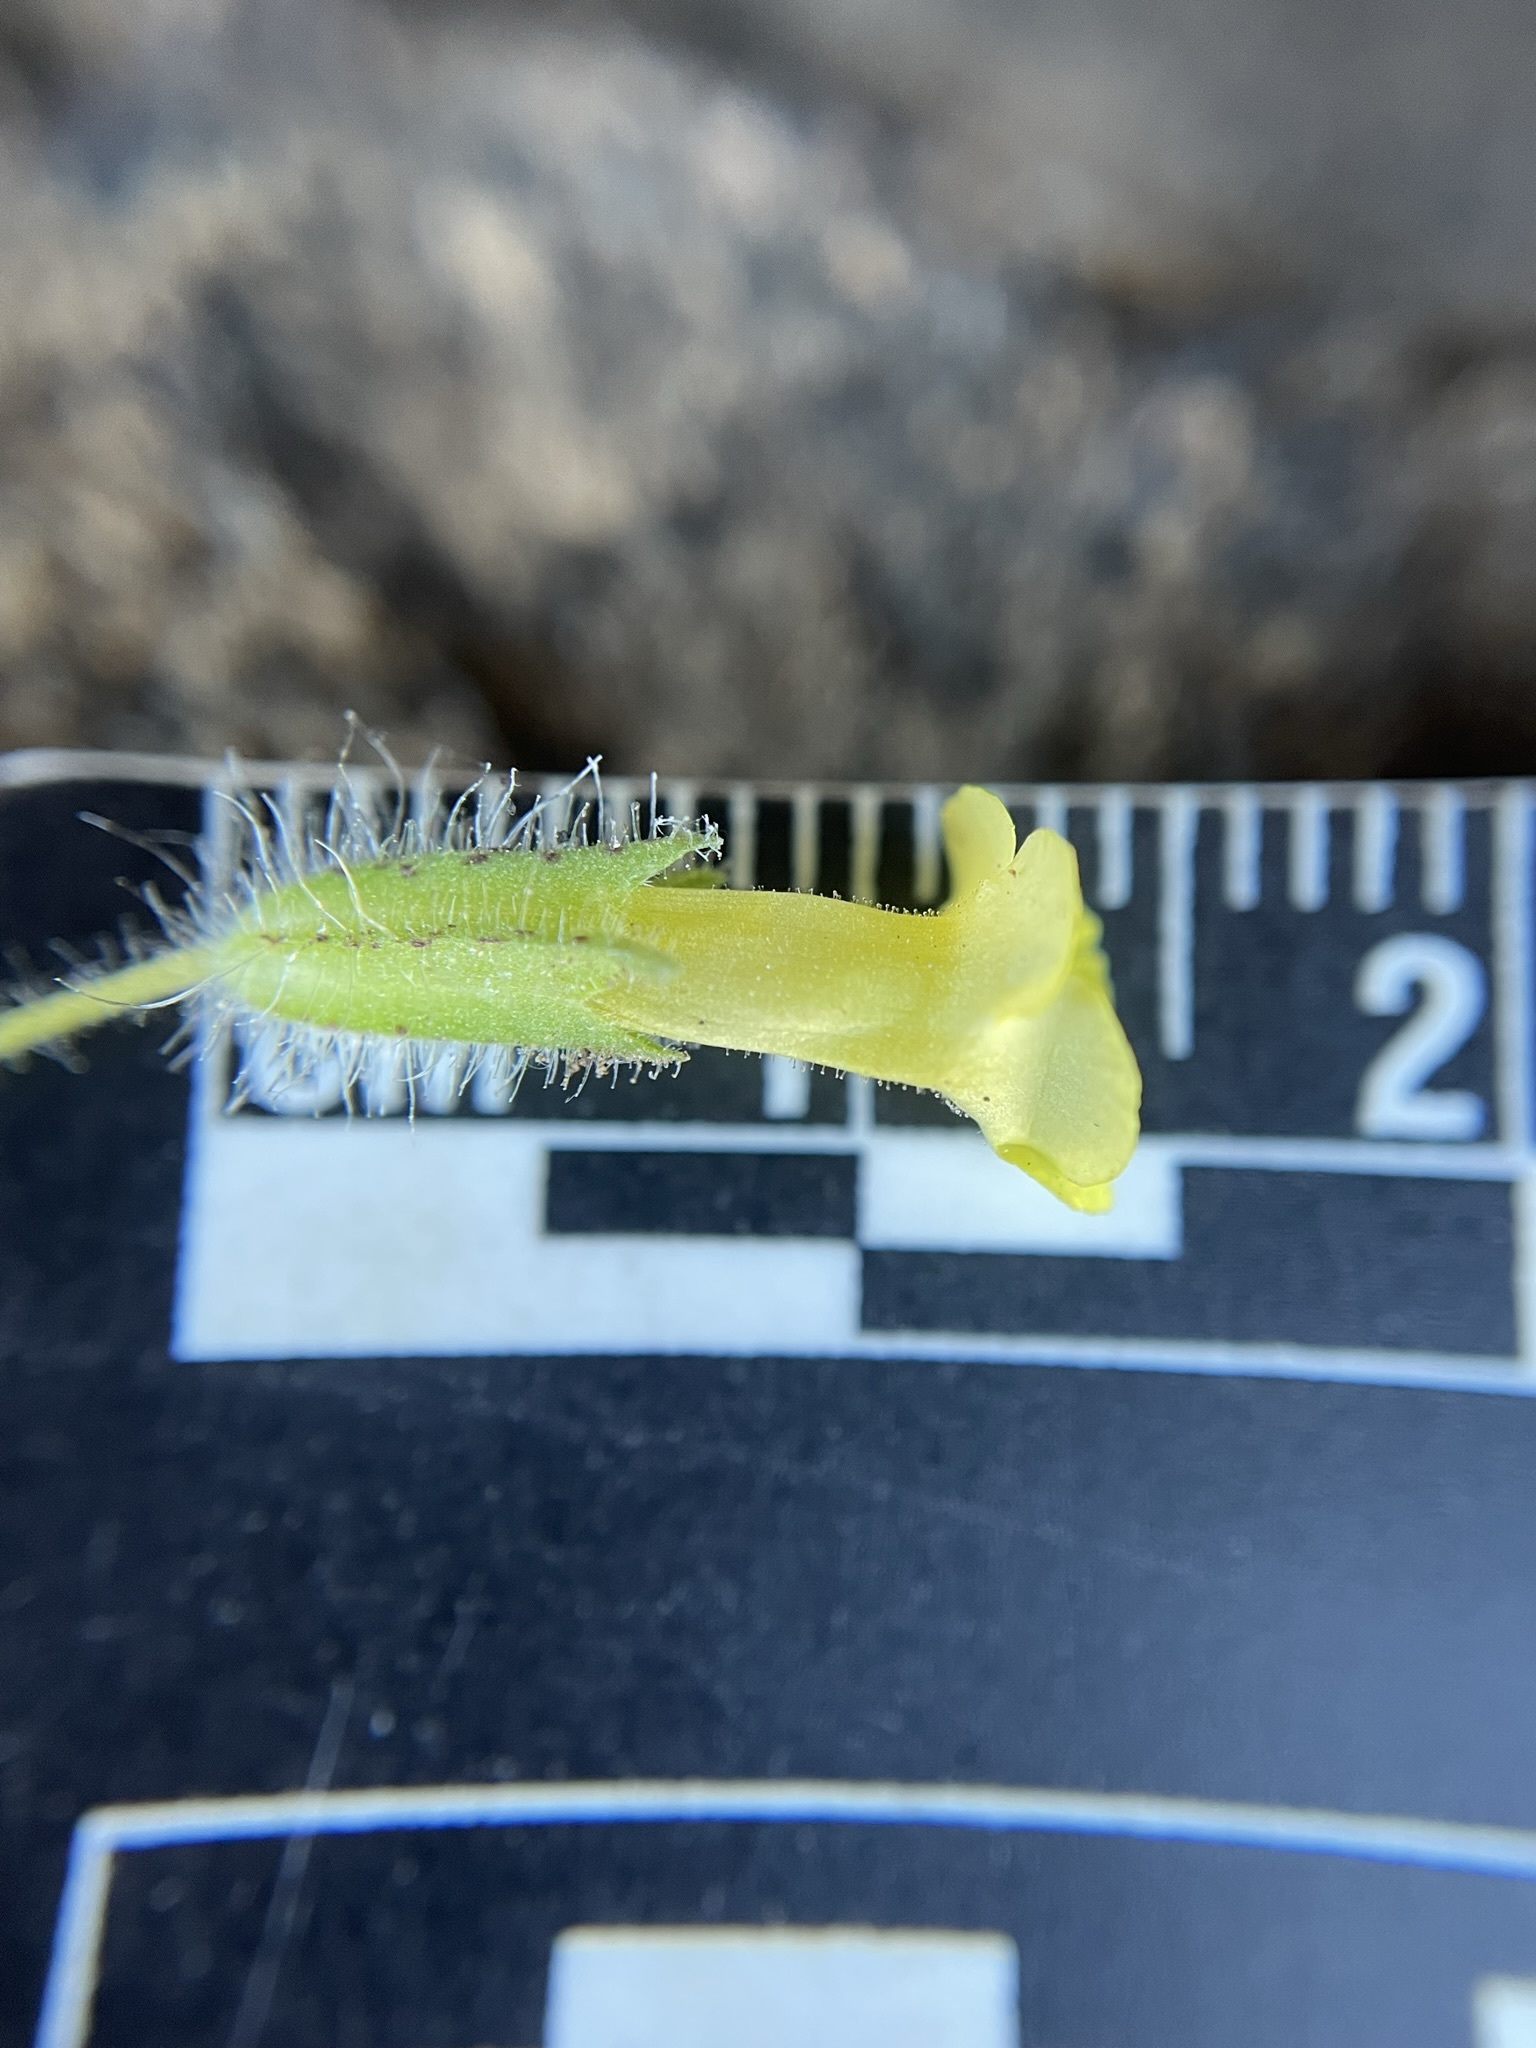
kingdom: Plantae
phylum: Tracheophyta
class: Magnoliopsida
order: Lamiales
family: Phrymaceae
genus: Erythranthe
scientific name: Erythranthe floribunda
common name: Floriferous monkeyflower
